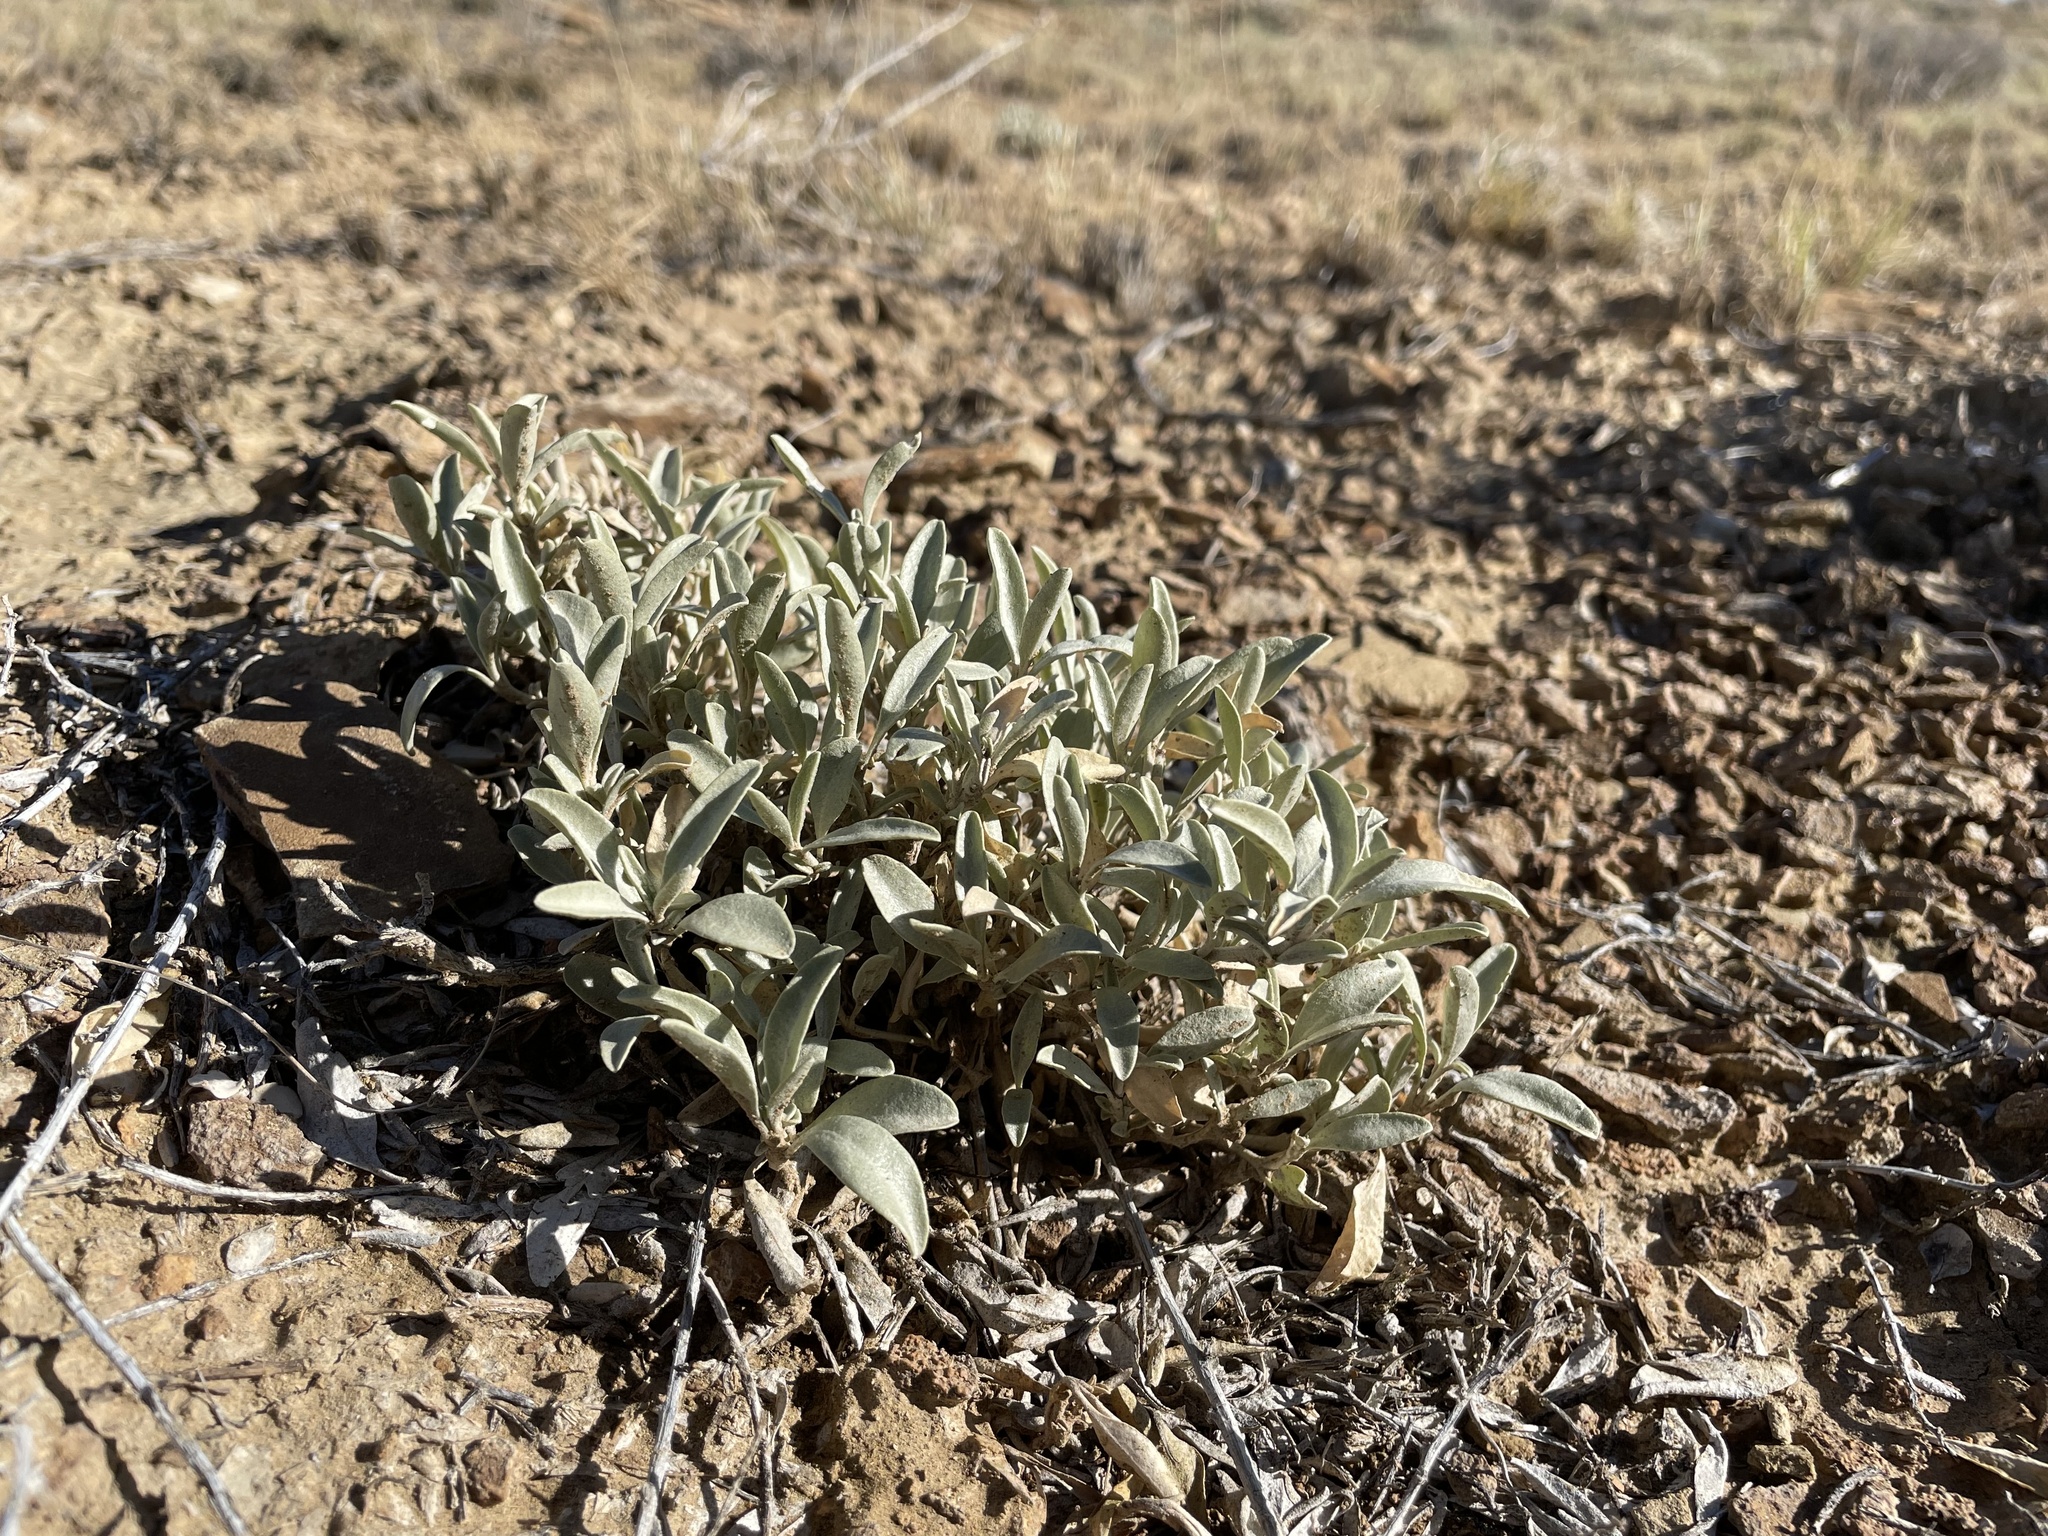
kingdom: Plantae
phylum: Tracheophyta
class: Magnoliopsida
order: Caryophyllales
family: Amaranthaceae
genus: Atriplex
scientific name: Atriplex gardneri
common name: Gardner's orache
